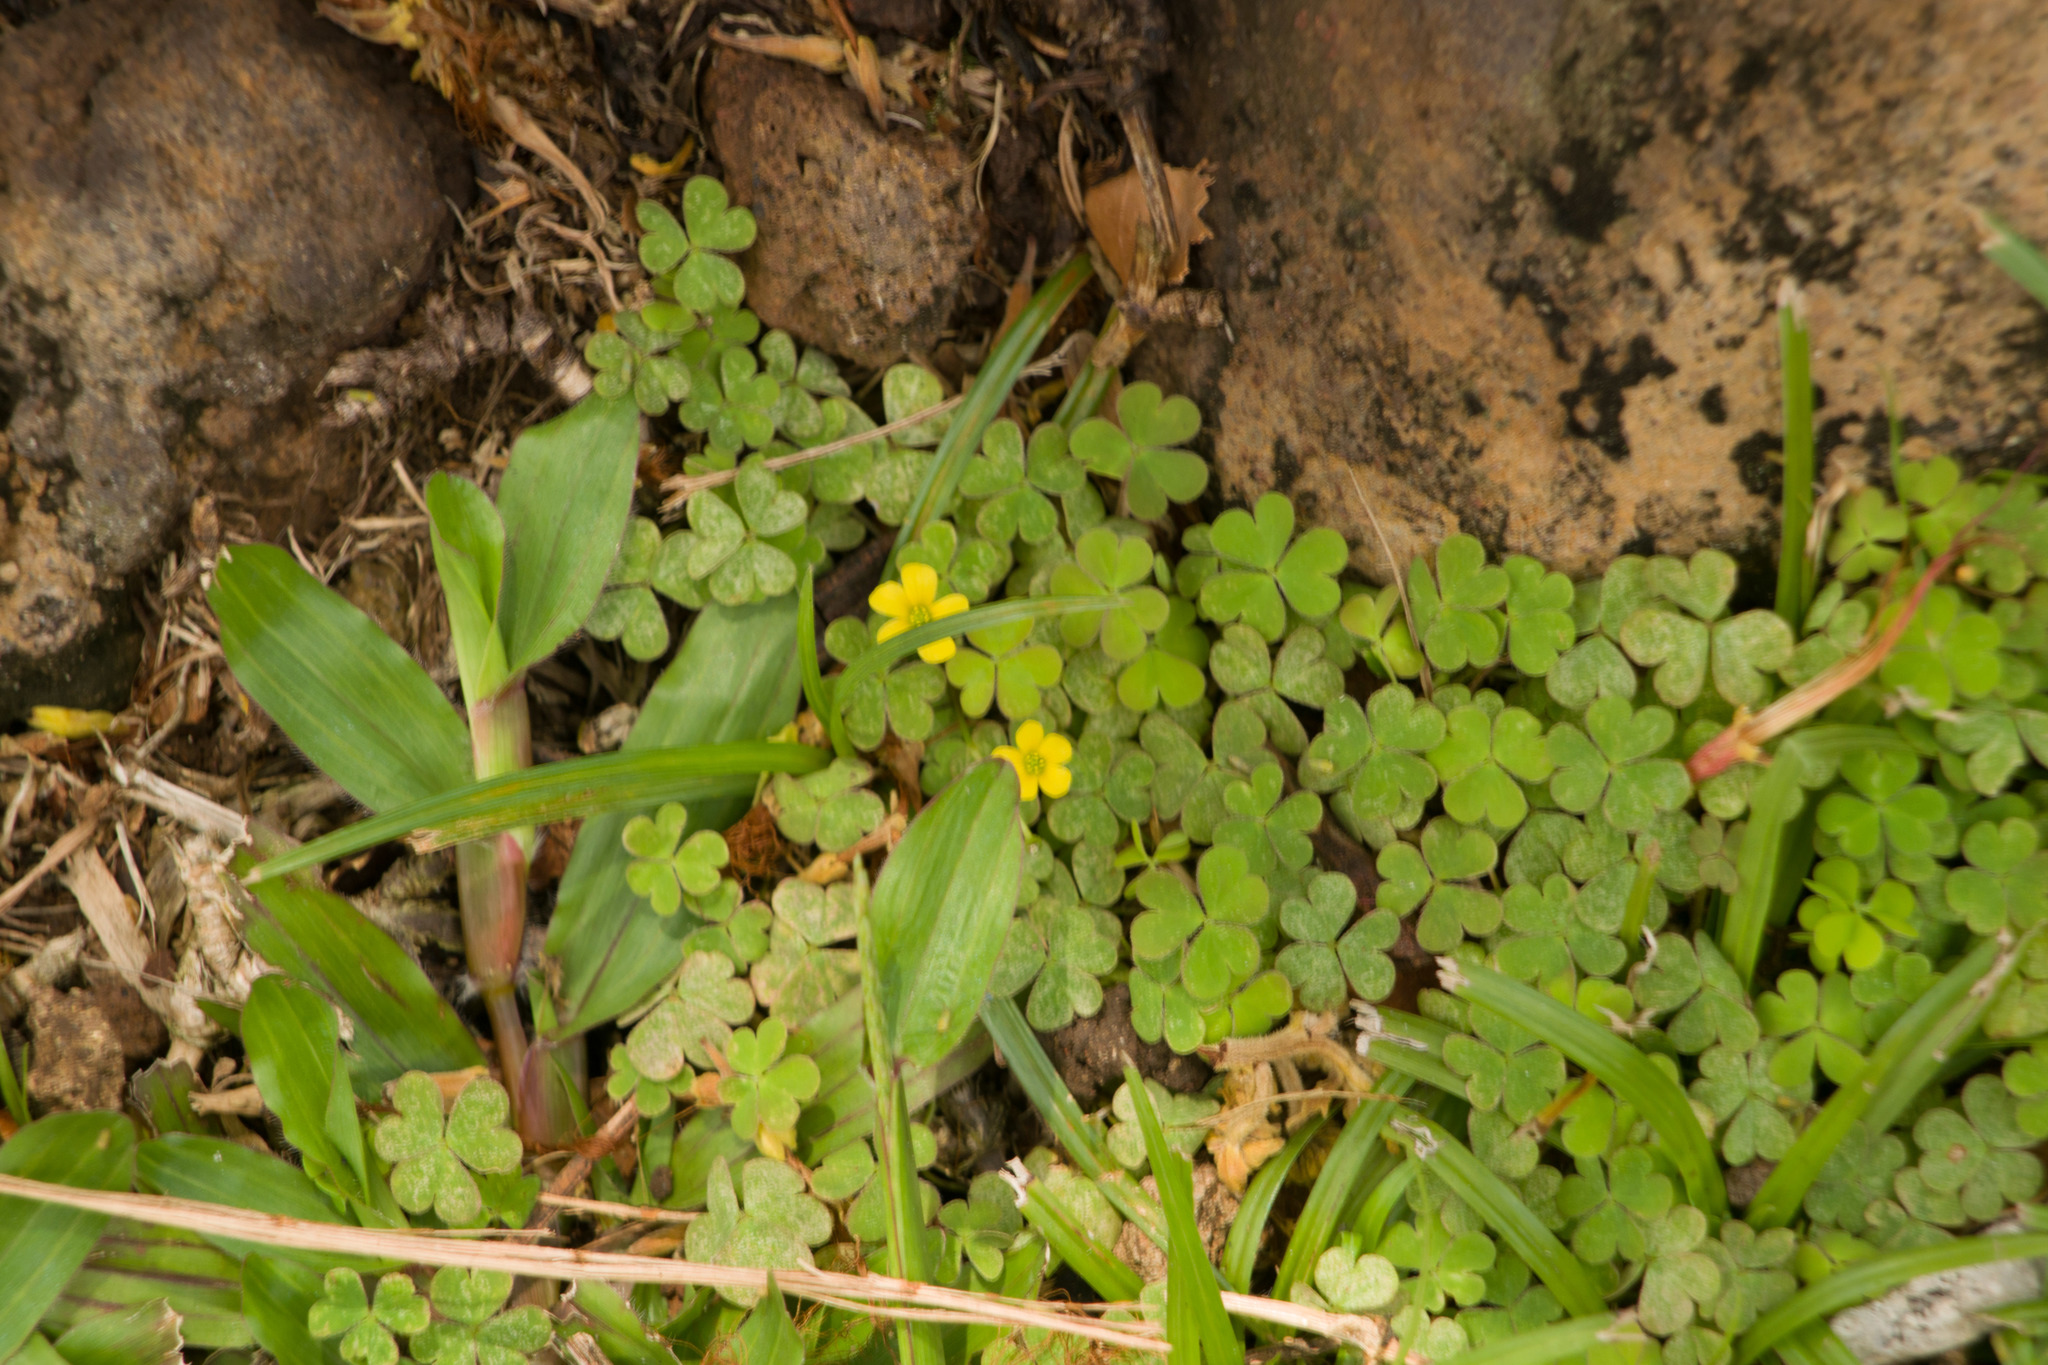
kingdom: Plantae
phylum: Tracheophyta
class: Magnoliopsida
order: Oxalidales
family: Oxalidaceae
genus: Oxalis
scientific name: Oxalis corniculata
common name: Procumbent yellow-sorrel
